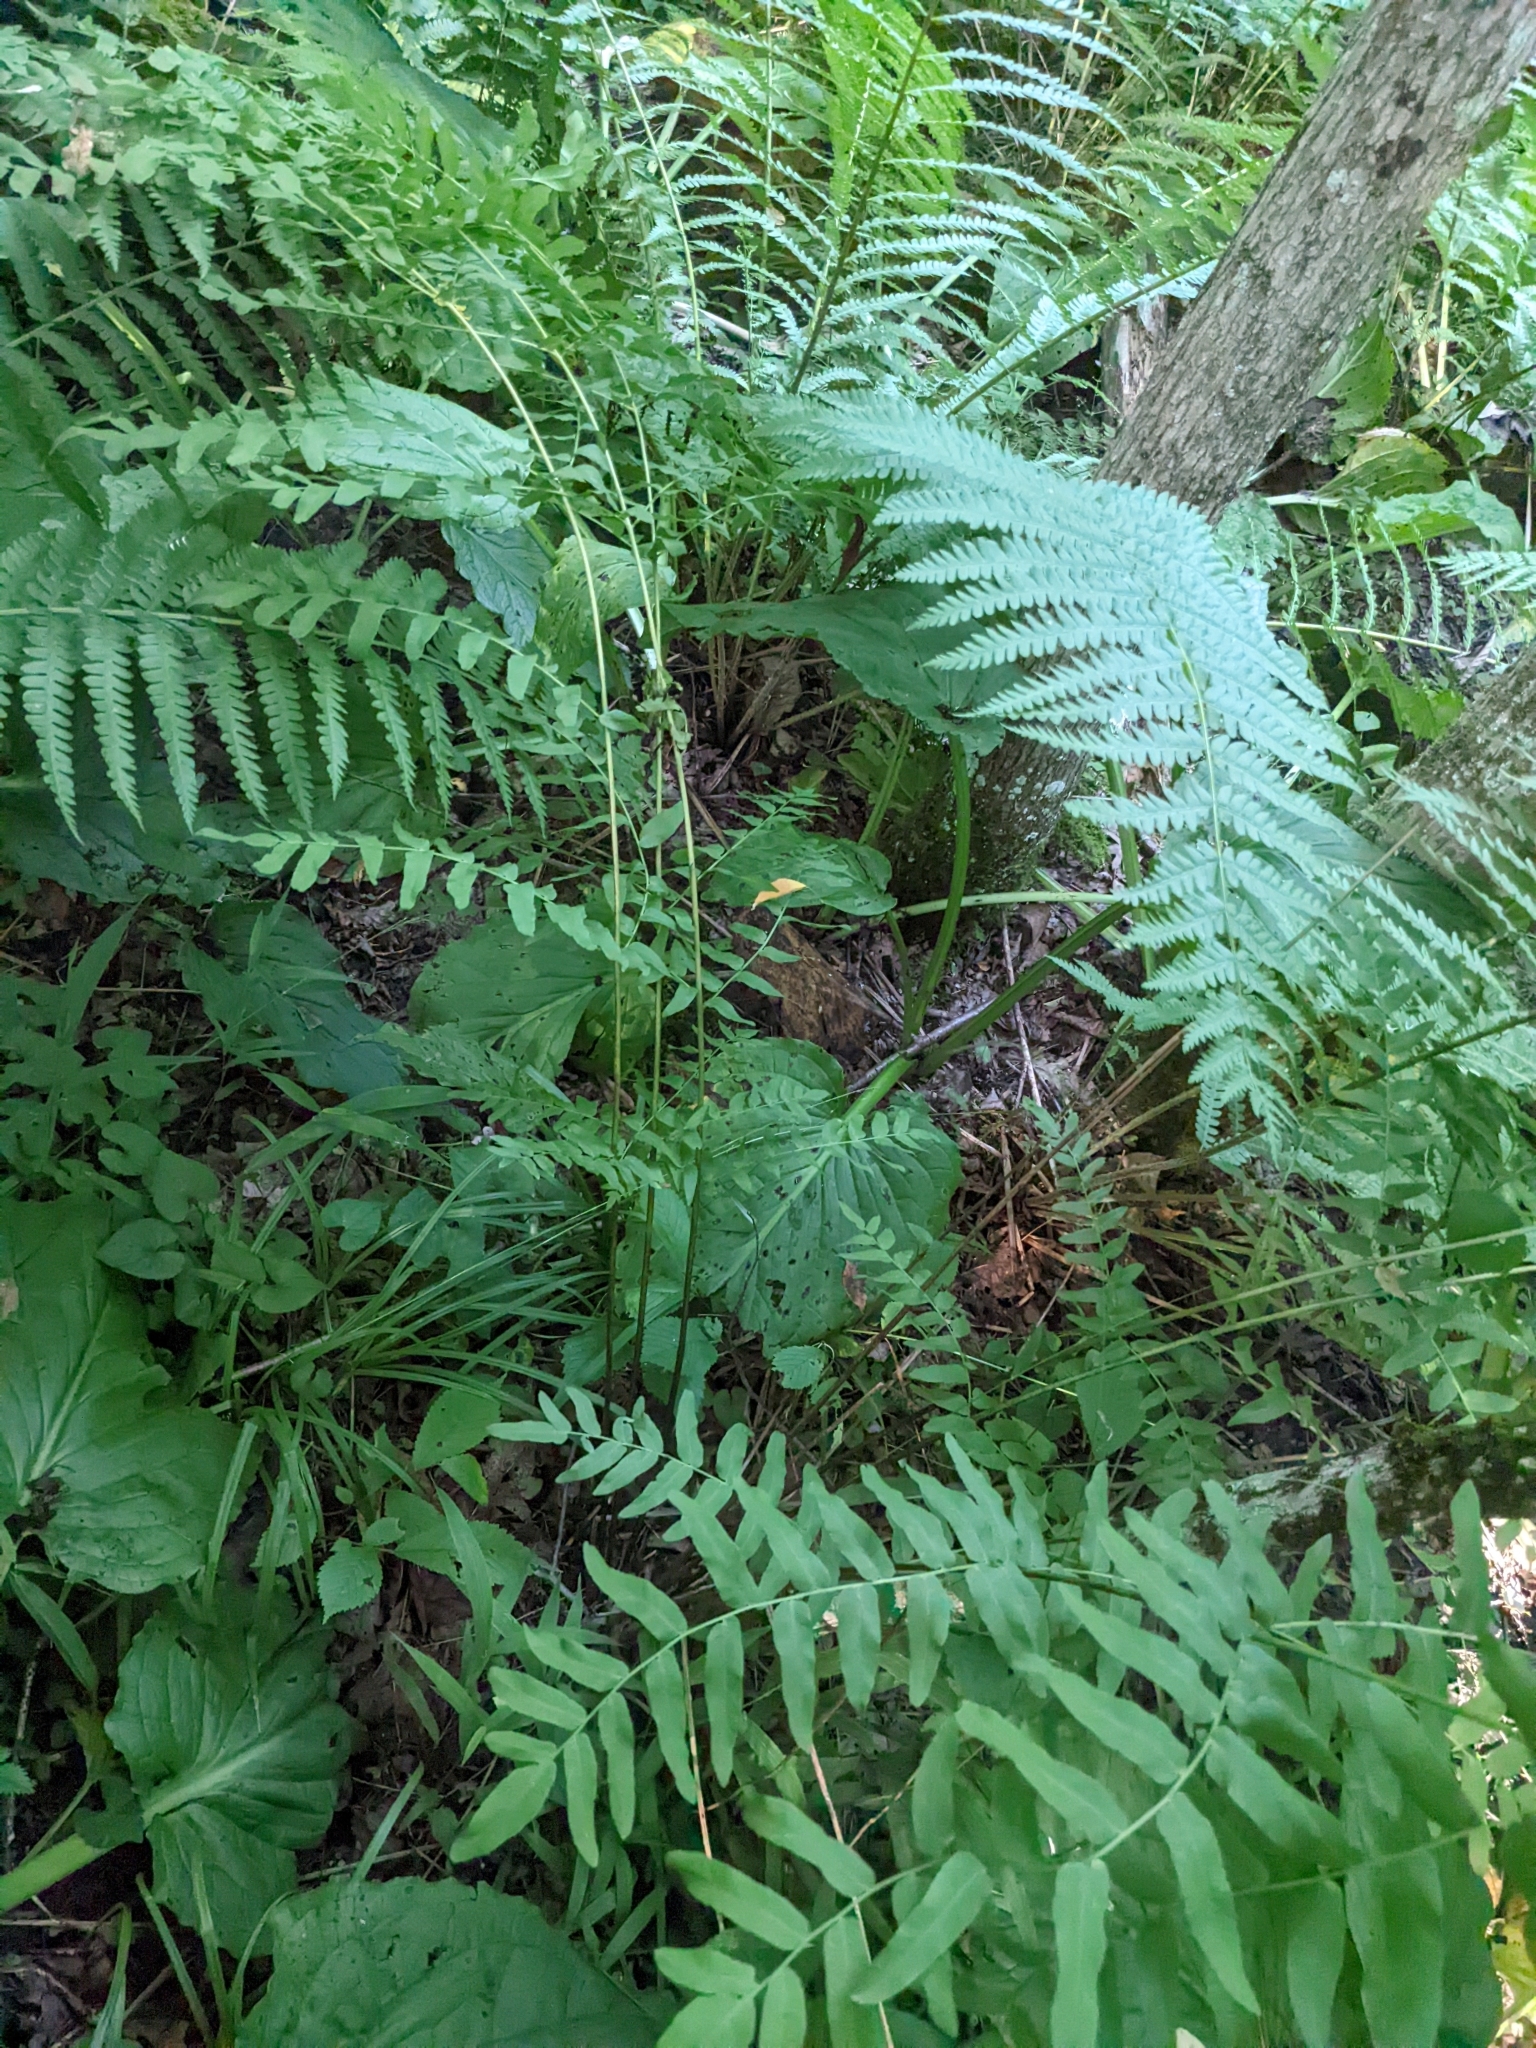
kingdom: Plantae
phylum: Tracheophyta
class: Polypodiopsida
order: Osmundales
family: Osmundaceae
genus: Osmunda
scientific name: Osmunda spectabilis
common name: American royal fern
